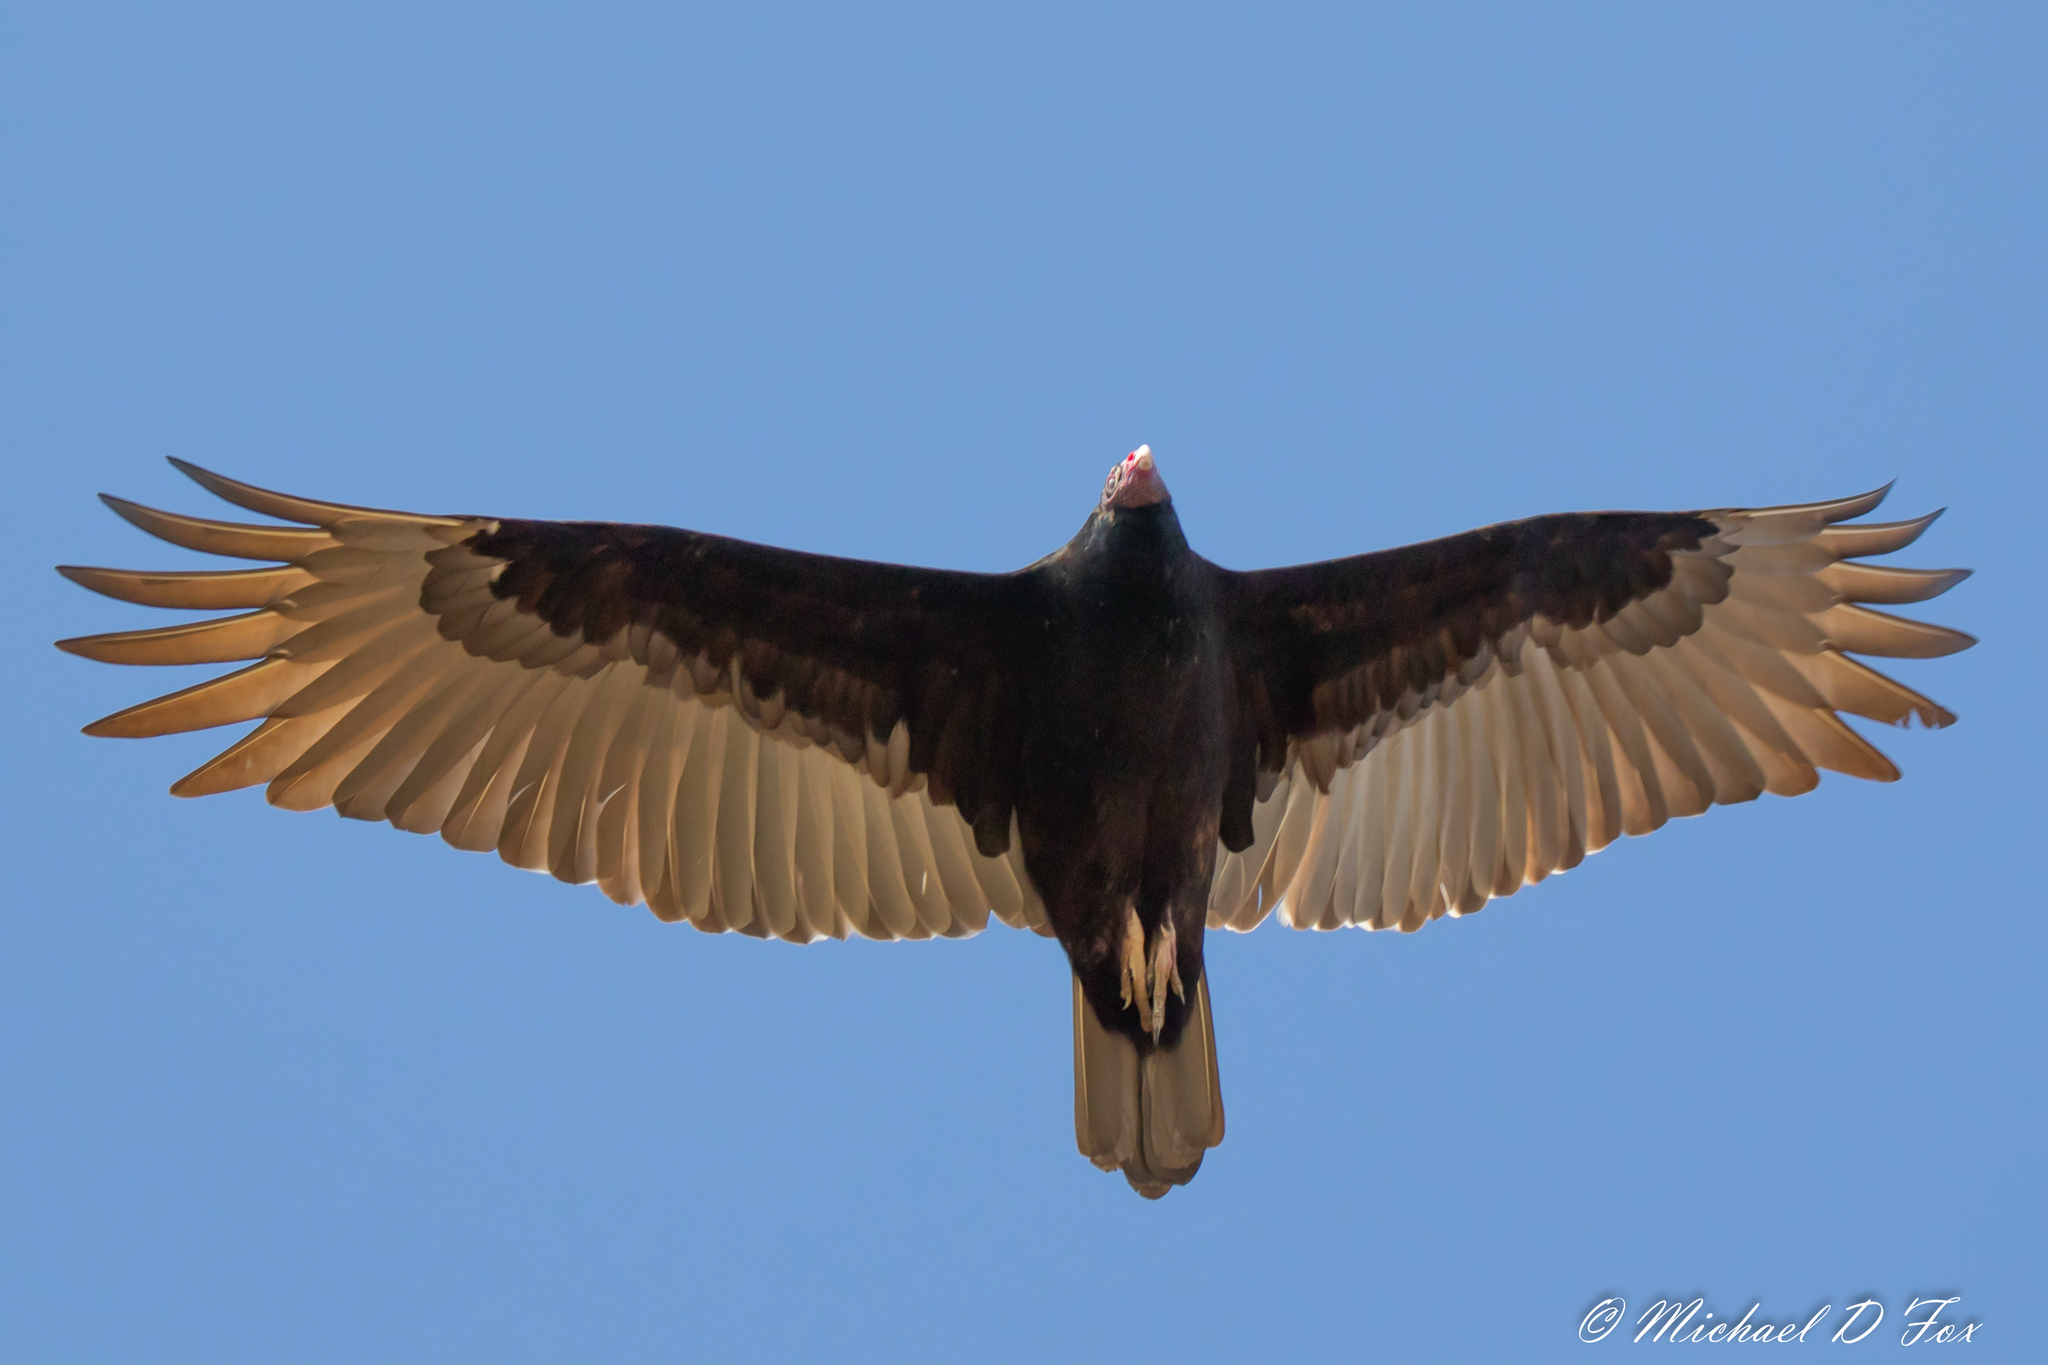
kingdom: Animalia
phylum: Chordata
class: Aves
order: Accipitriformes
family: Cathartidae
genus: Cathartes
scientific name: Cathartes aura
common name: Turkey vulture
